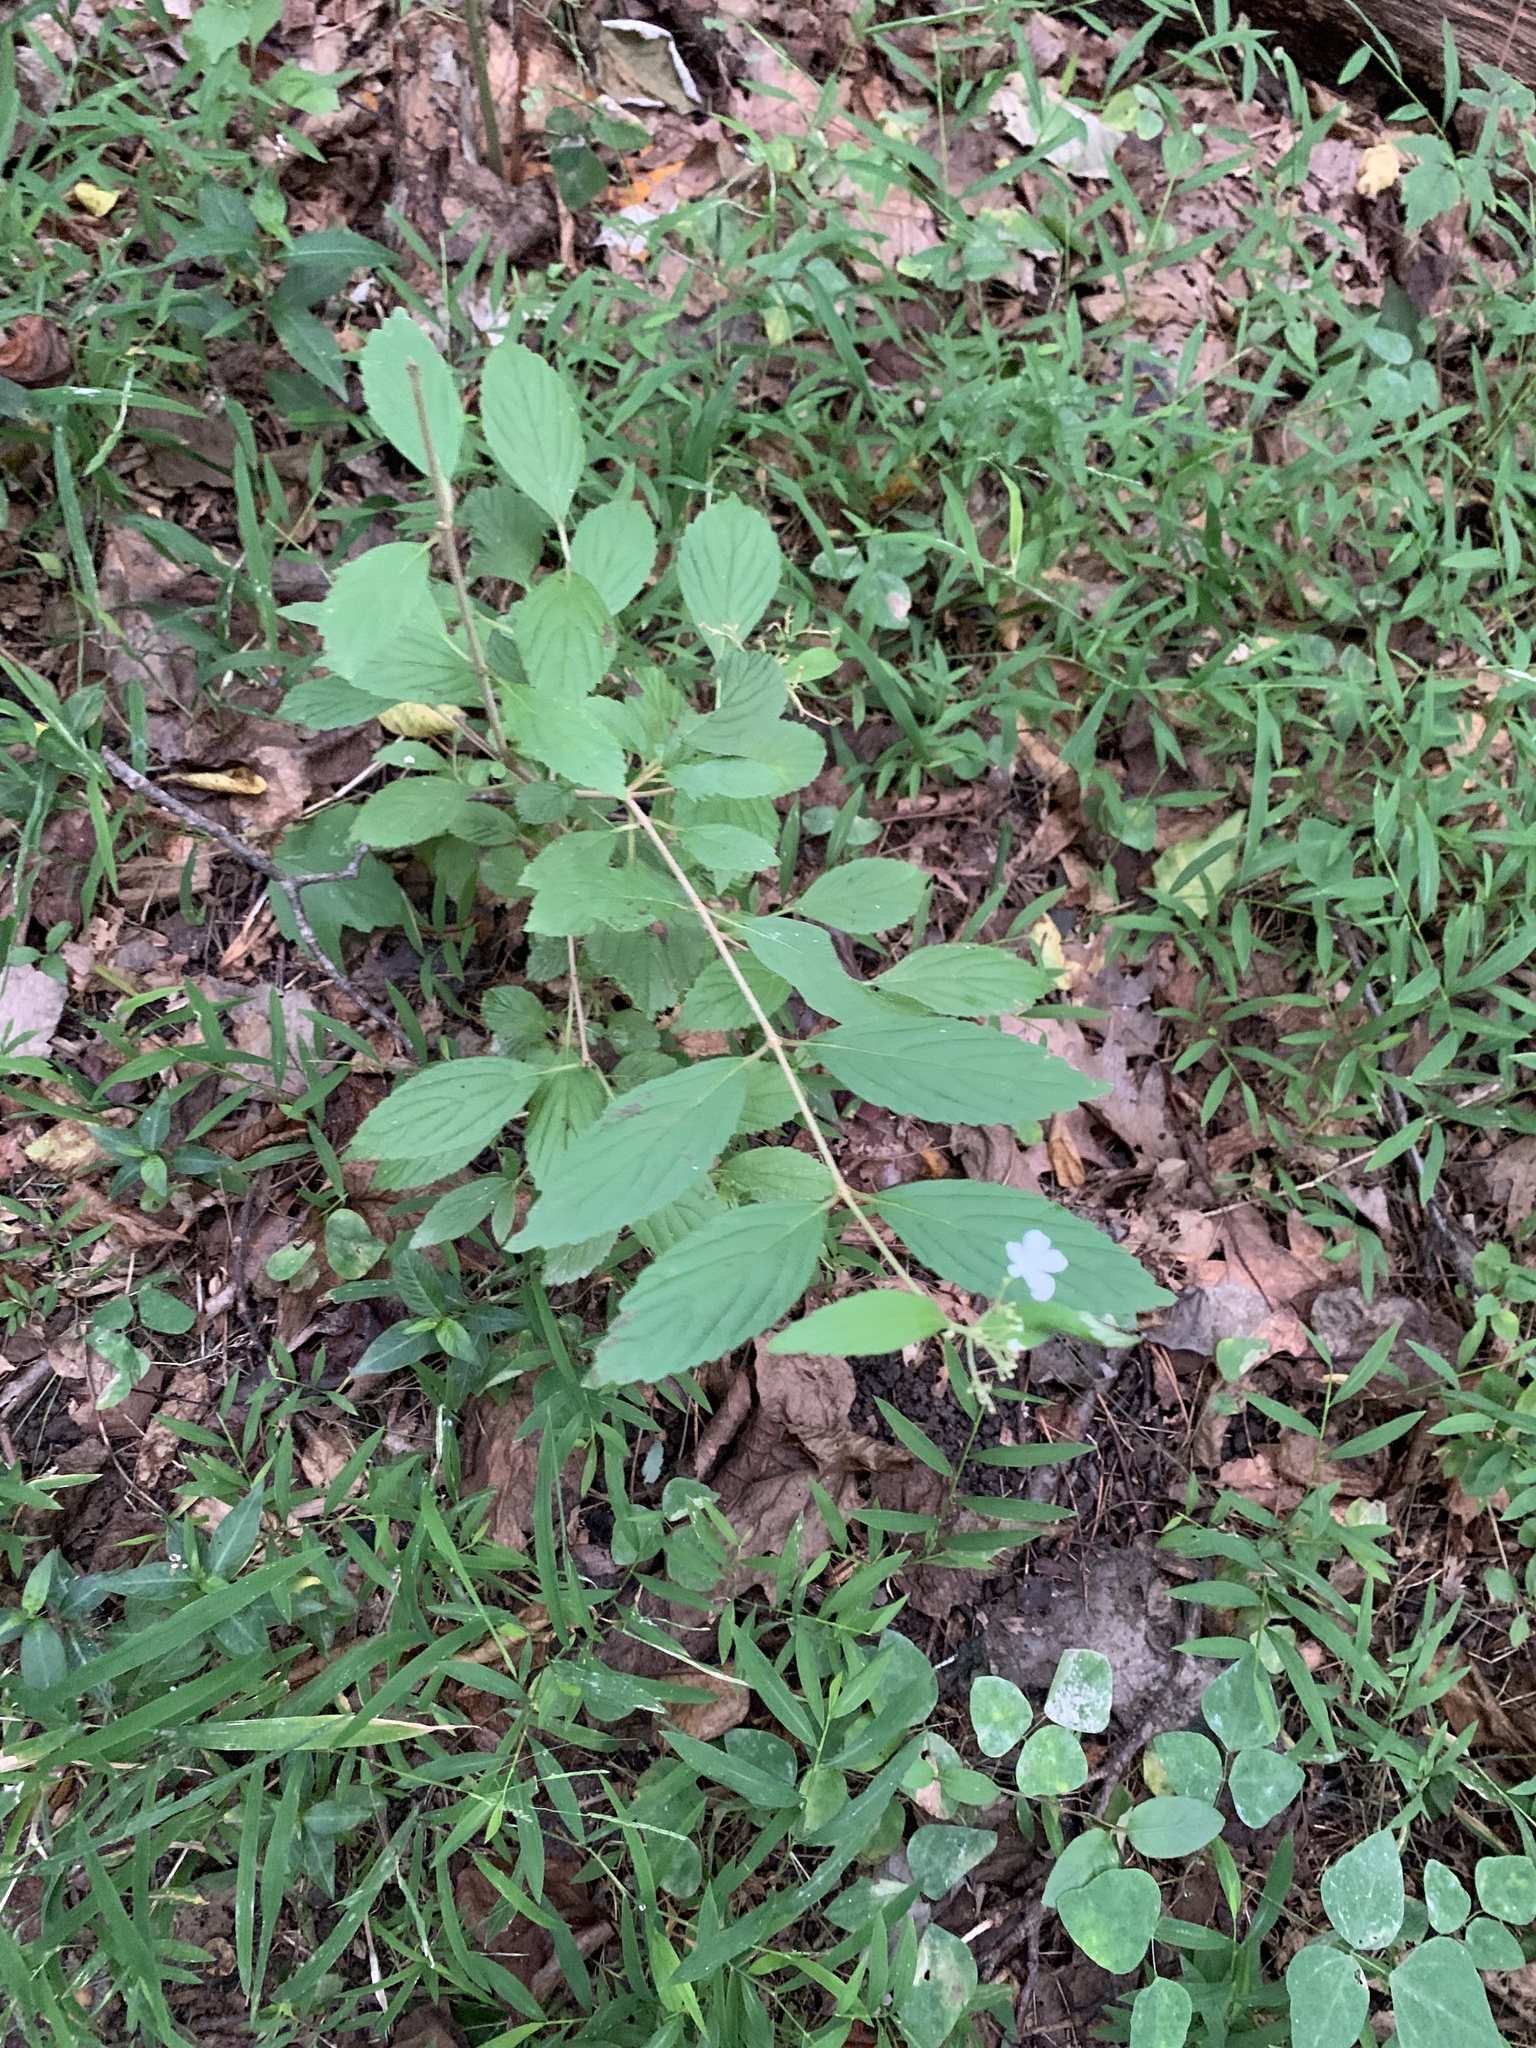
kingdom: Plantae
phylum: Tracheophyta
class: Magnoliopsida
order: Dipsacales
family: Viburnaceae
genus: Viburnum
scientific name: Viburnum plicatum
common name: Japanese snowball
